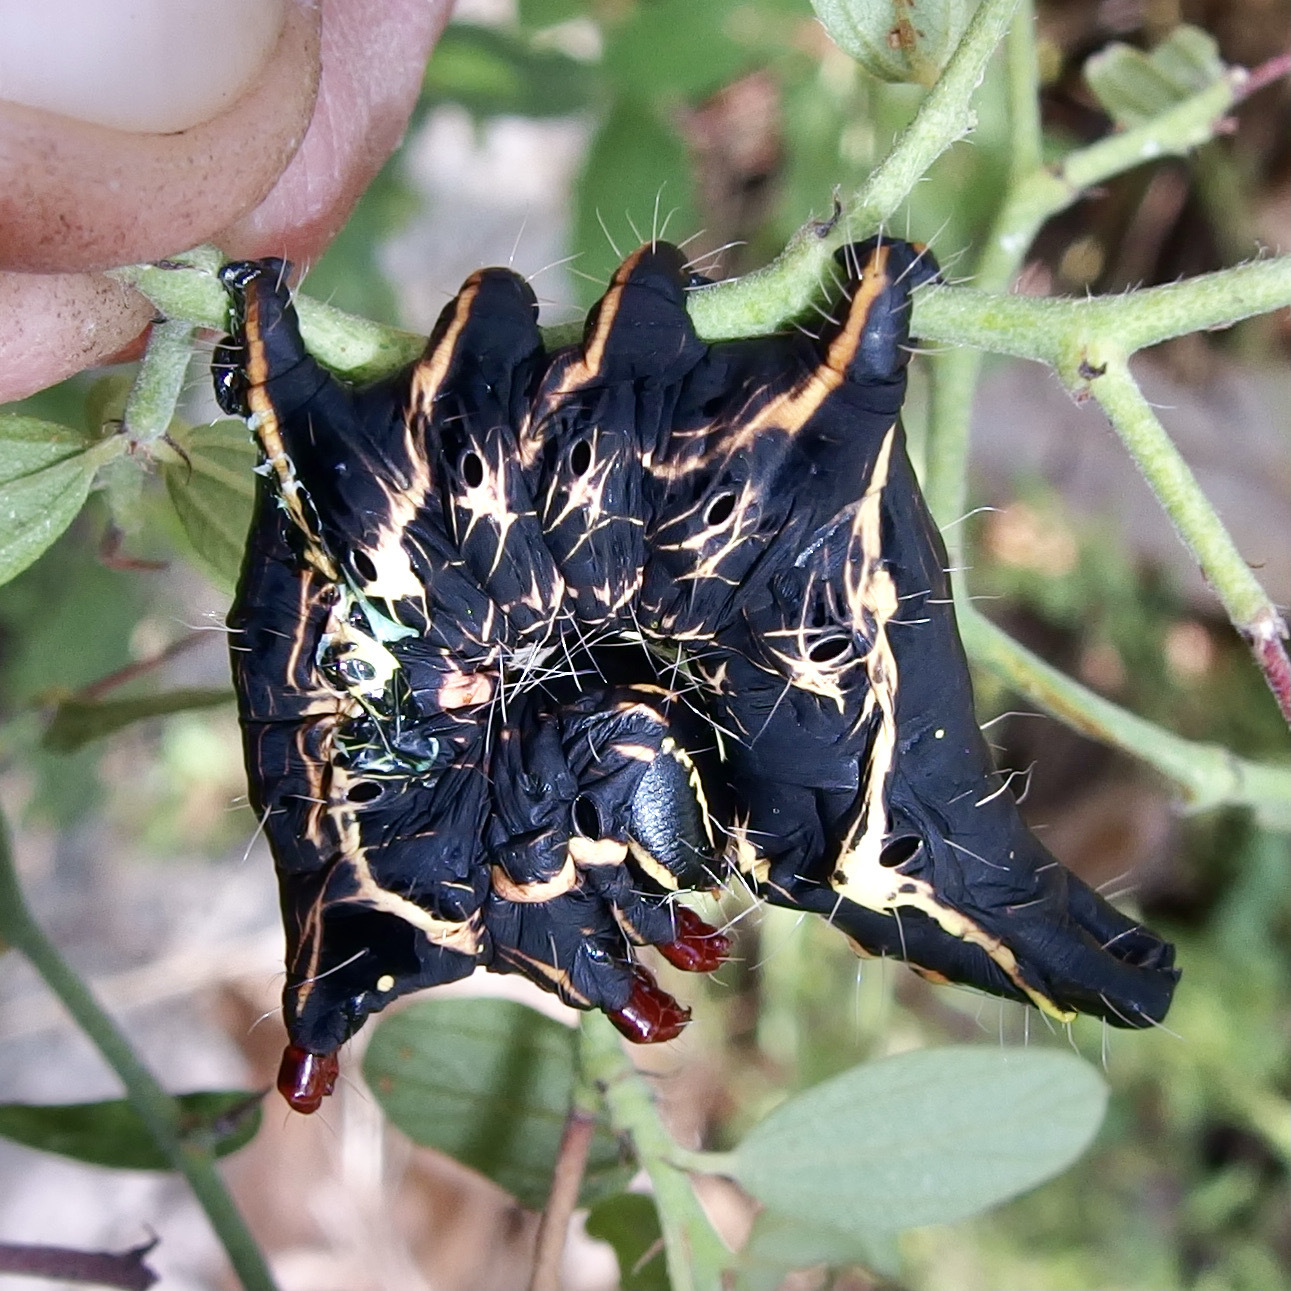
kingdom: Animalia
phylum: Arthropoda
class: Insecta
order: Lepidoptera
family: Notodontidae
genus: Crinodes
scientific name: Crinodes biedermani
